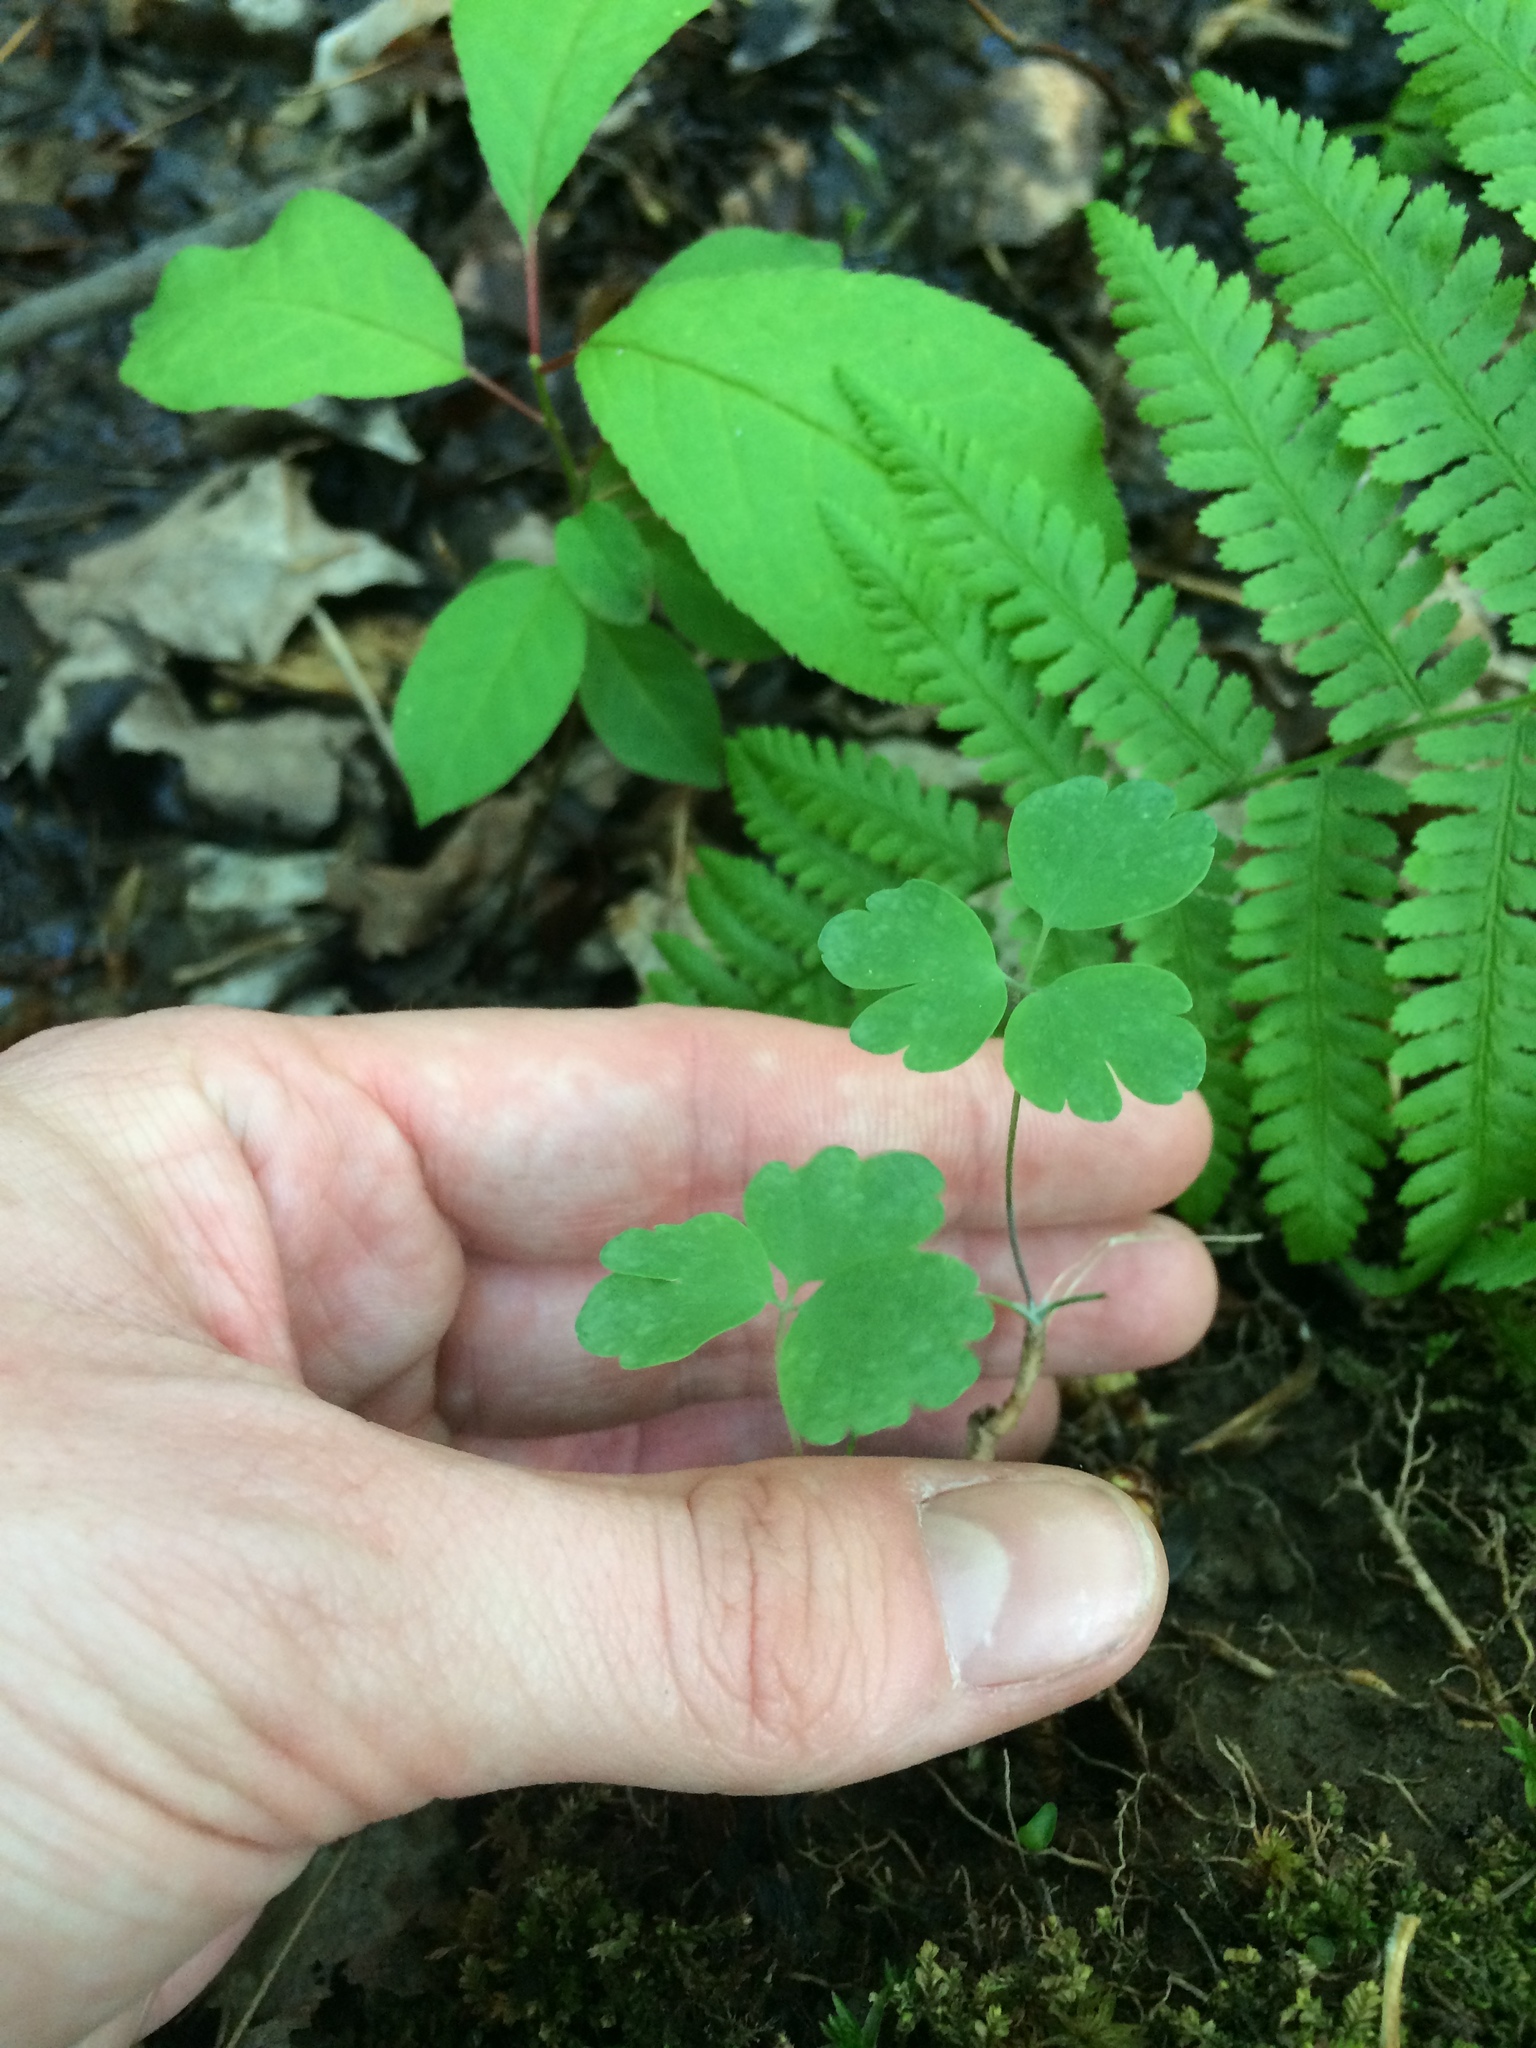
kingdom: Plantae
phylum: Tracheophyta
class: Magnoliopsida
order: Ranunculales
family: Ranunculaceae
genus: Aquilegia
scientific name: Aquilegia canadensis
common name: American columbine
